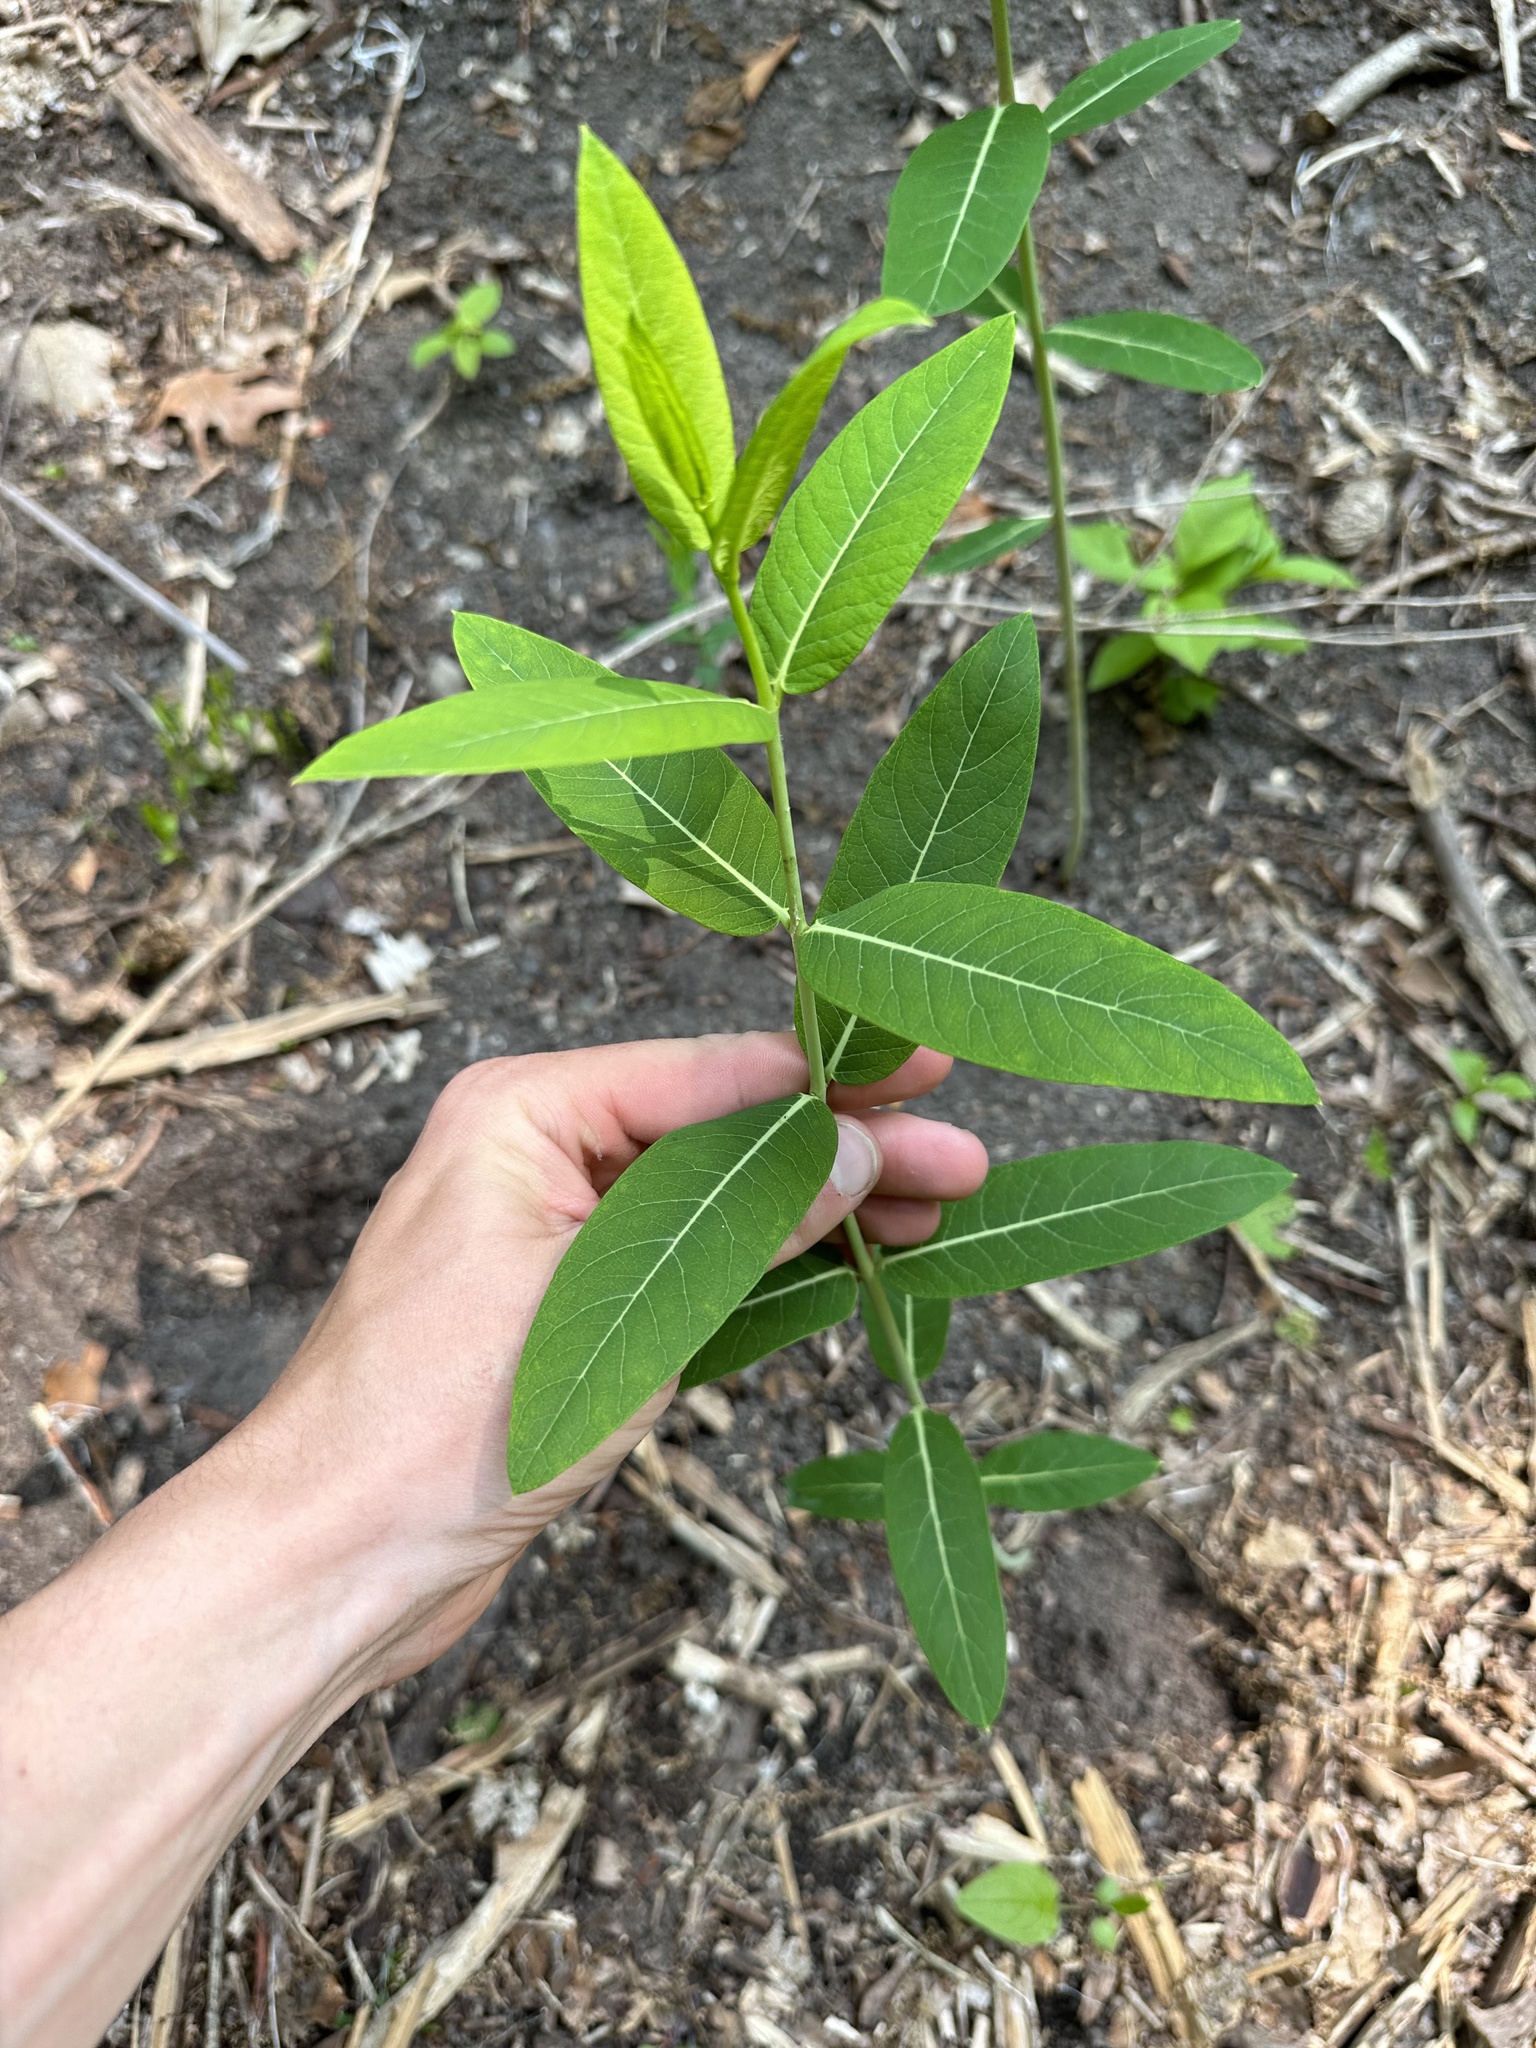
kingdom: Plantae
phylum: Tracheophyta
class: Magnoliopsida
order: Gentianales
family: Apocynaceae
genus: Apocynum
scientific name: Apocynum cannabinum
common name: Hemp dogbane
